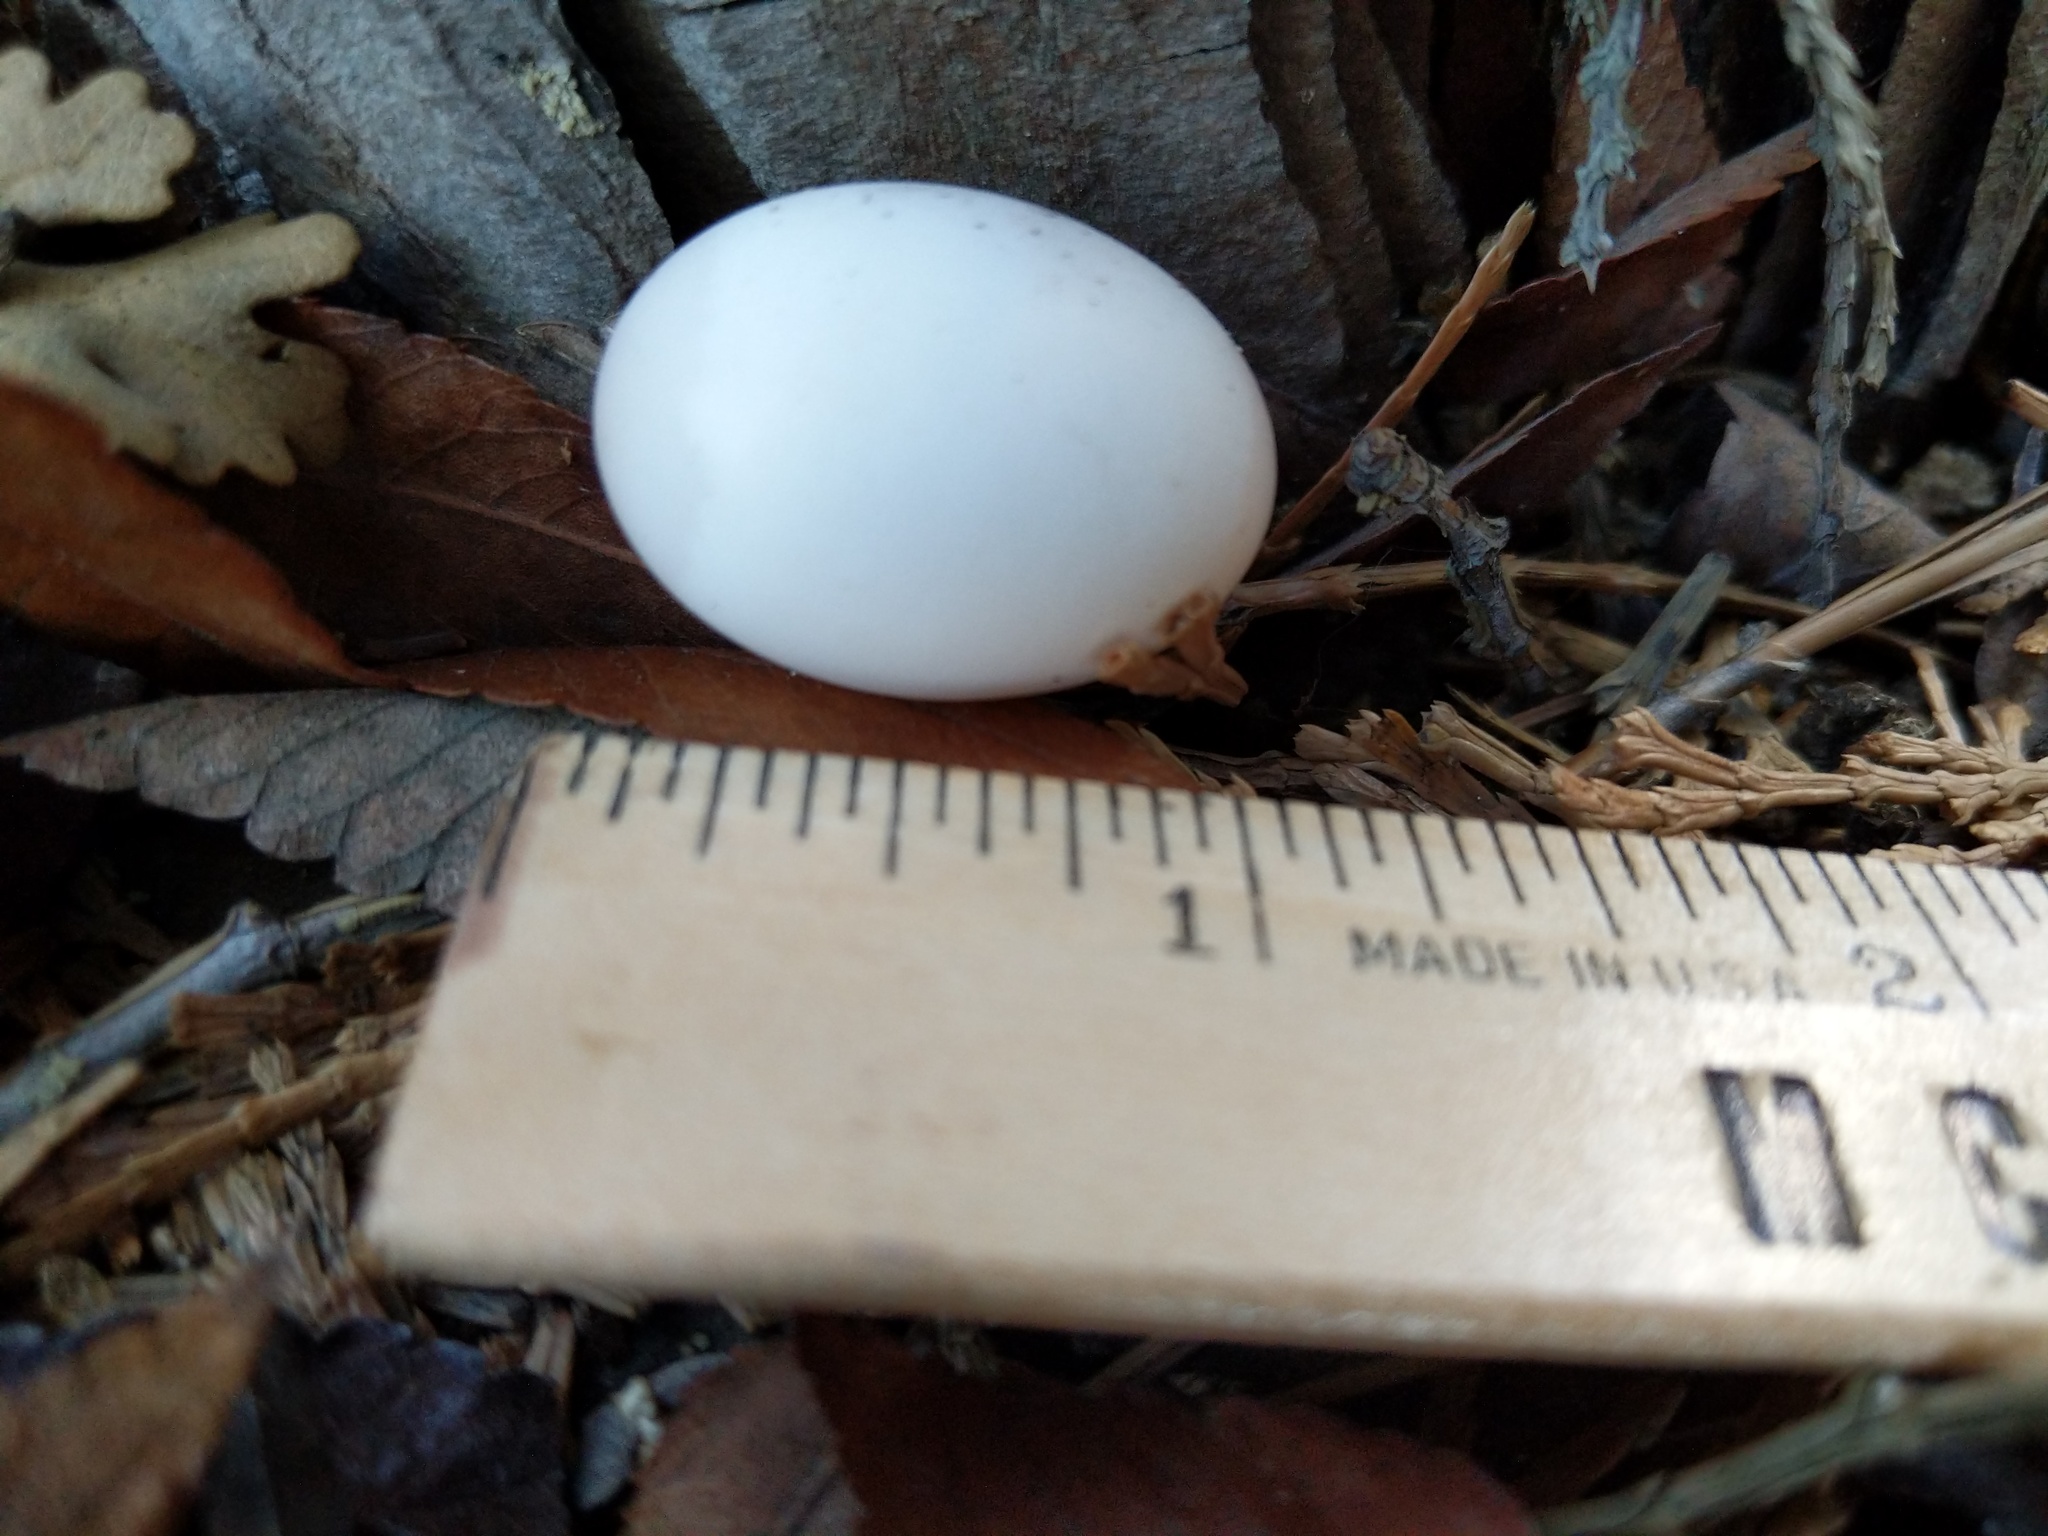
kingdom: Animalia
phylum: Chordata
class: Aves
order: Columbiformes
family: Columbidae
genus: Zenaida
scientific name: Zenaida macroura
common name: Mourning dove
